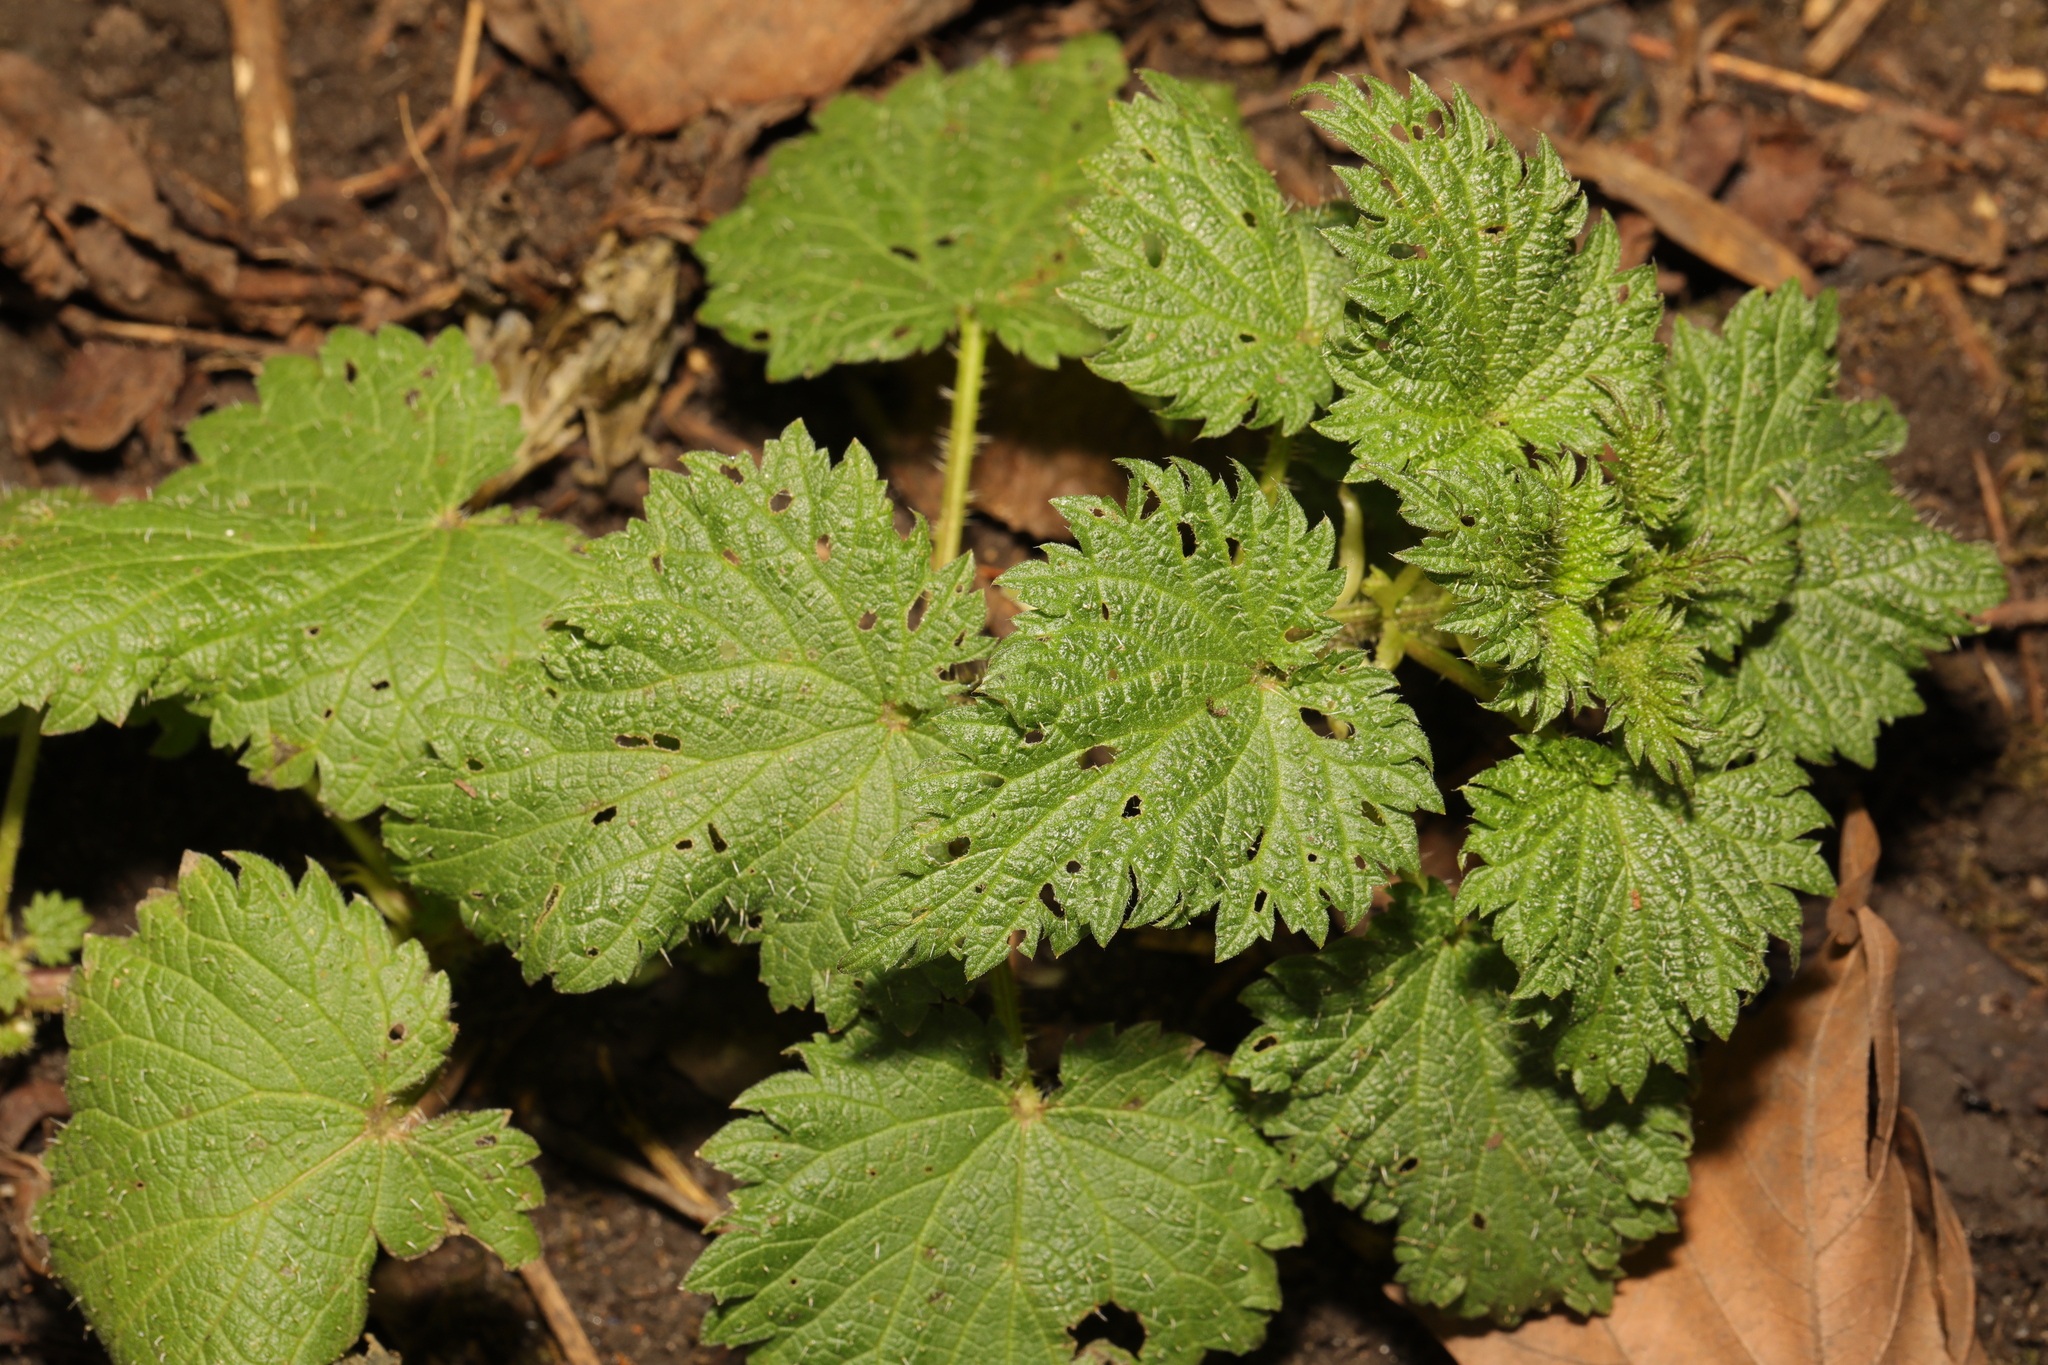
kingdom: Plantae
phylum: Tracheophyta
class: Magnoliopsida
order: Rosales
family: Urticaceae
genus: Urtica
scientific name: Urtica dioica
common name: Common nettle
